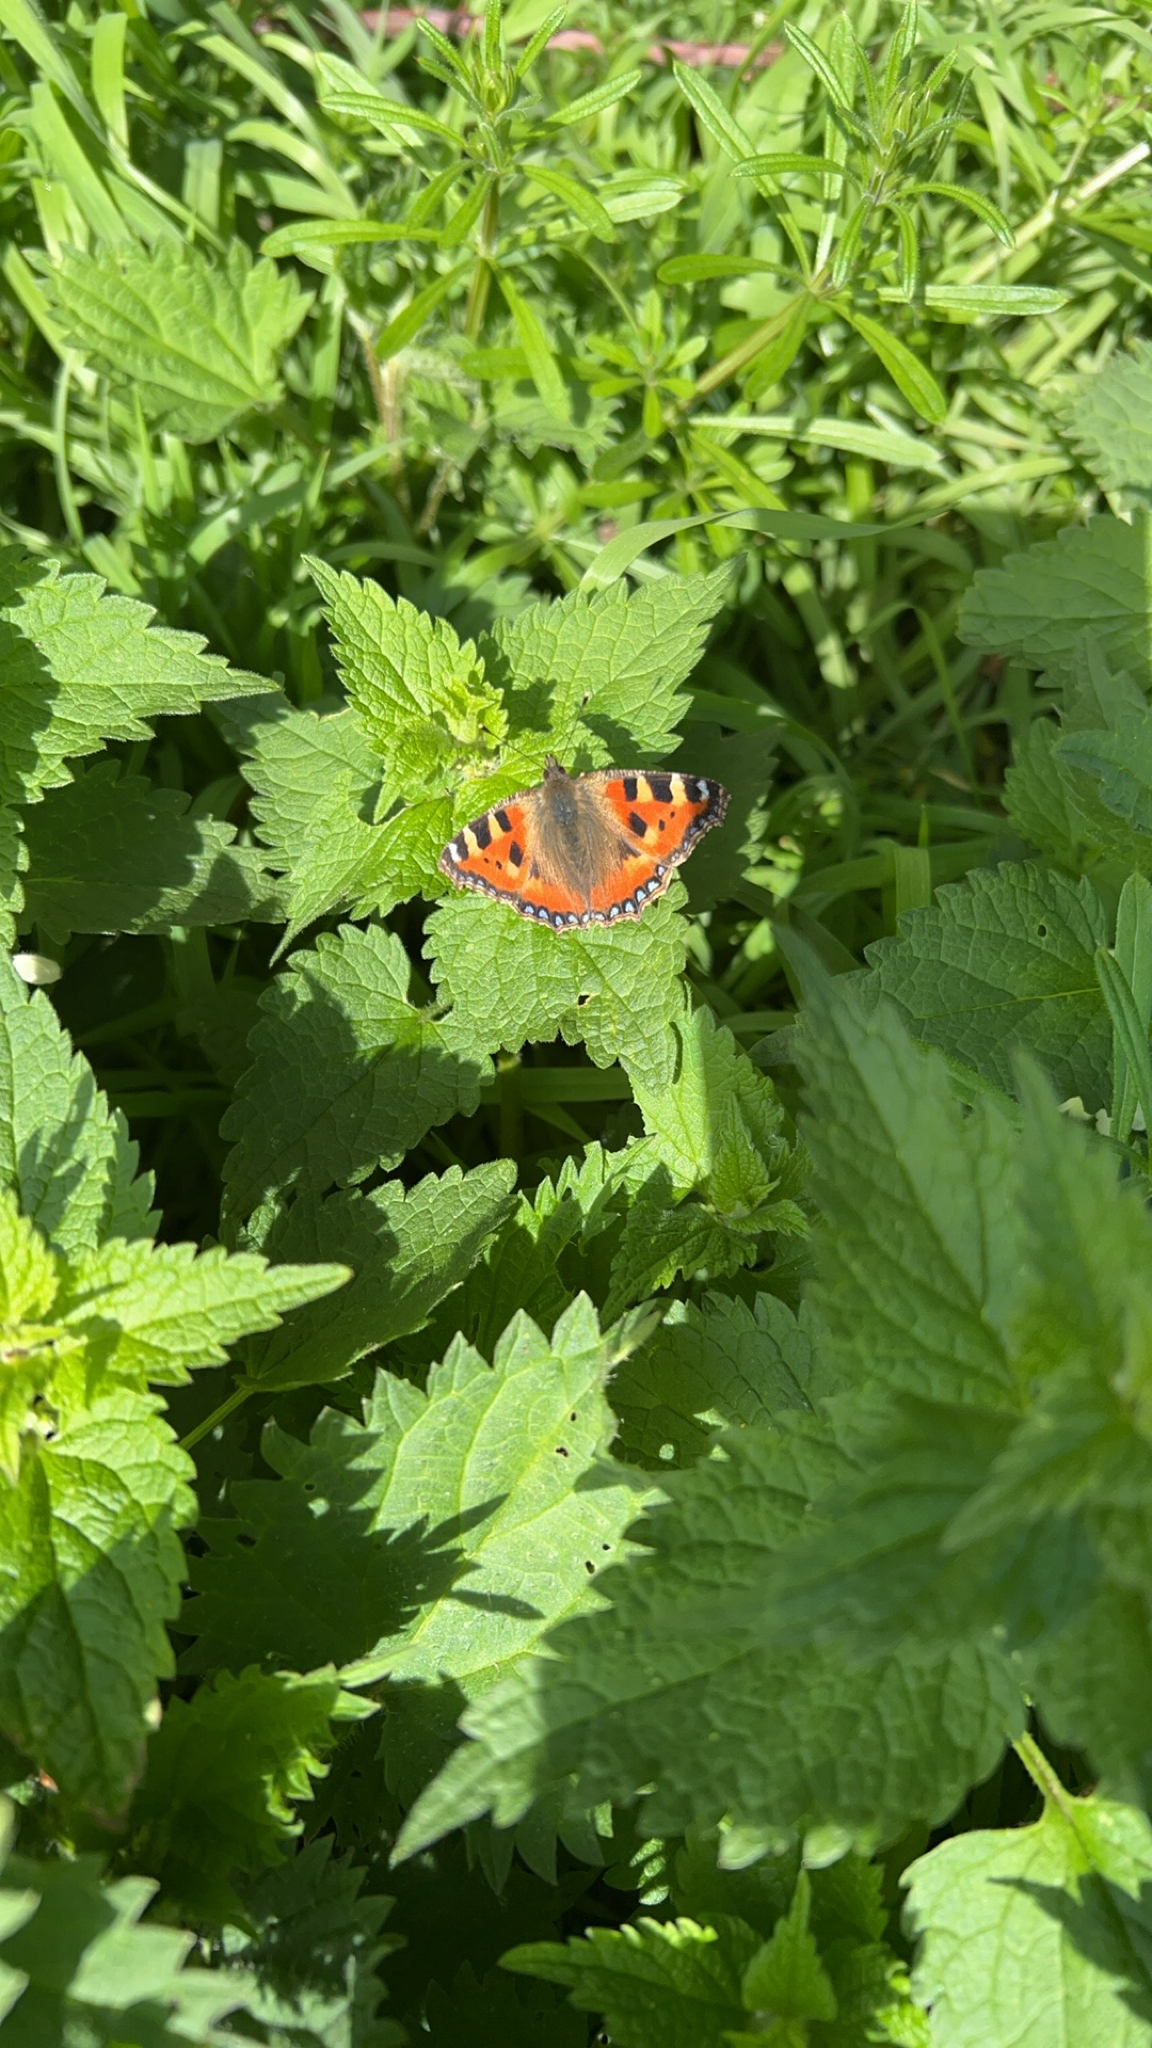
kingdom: Animalia
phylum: Arthropoda
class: Insecta
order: Lepidoptera
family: Nymphalidae
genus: Aglais
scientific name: Aglais urticae
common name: Small tortoiseshell
